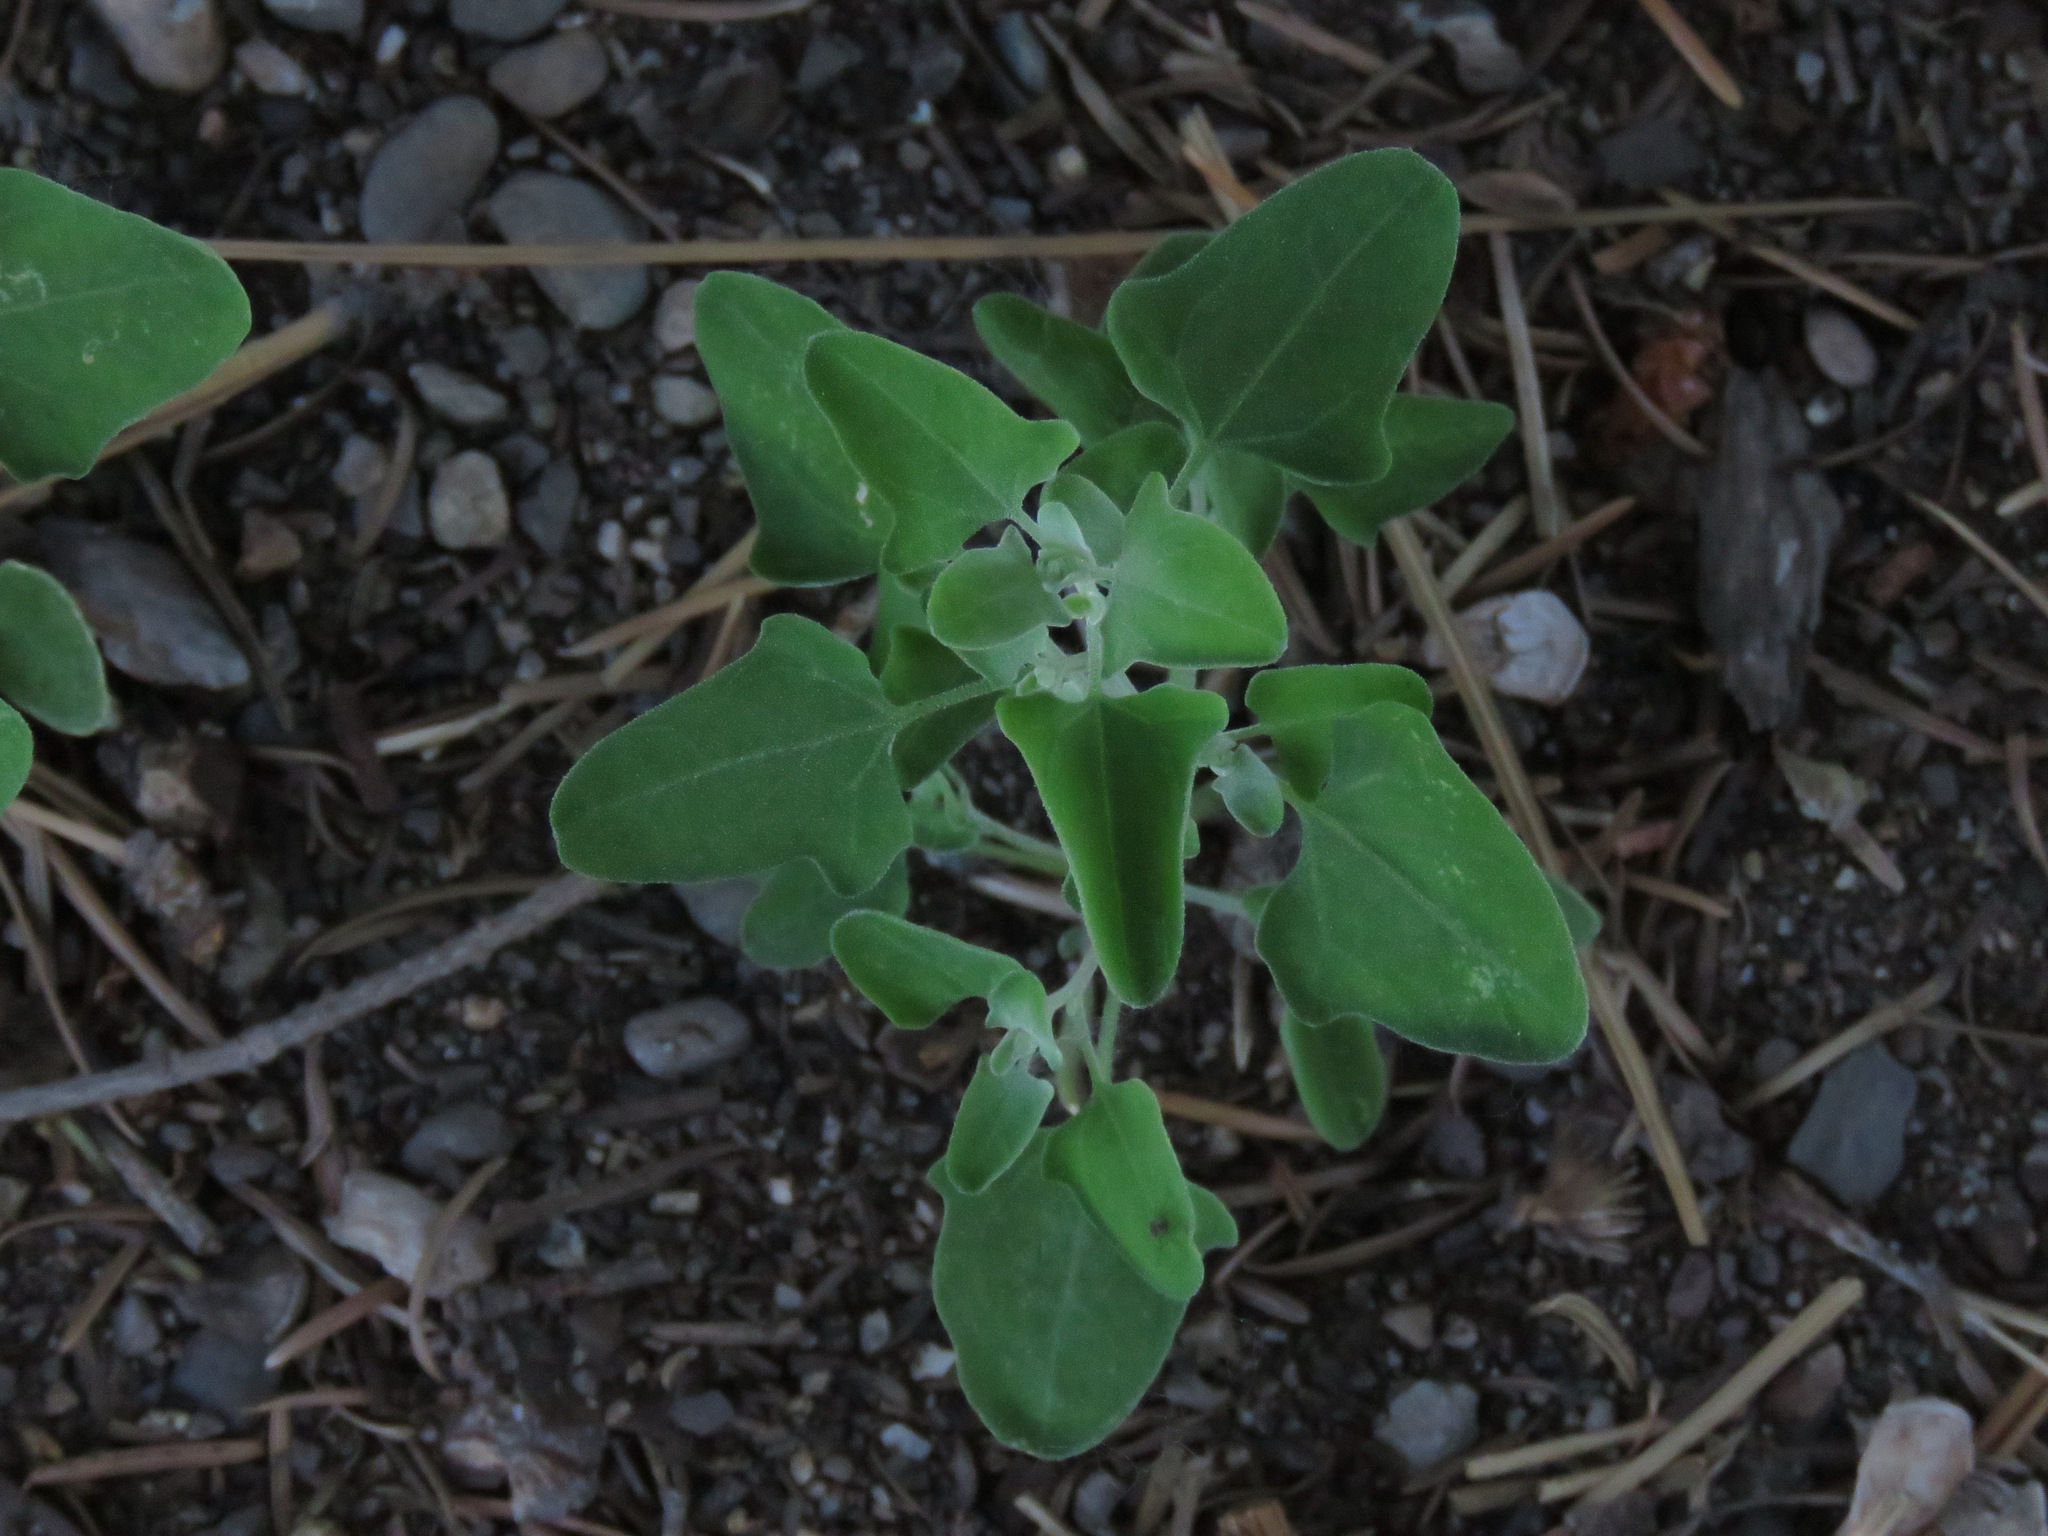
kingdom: Plantae
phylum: Tracheophyta
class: Magnoliopsida
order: Caryophyllales
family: Amaranthaceae
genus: Chenopodium
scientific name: Chenopodium album
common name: Fat-hen
